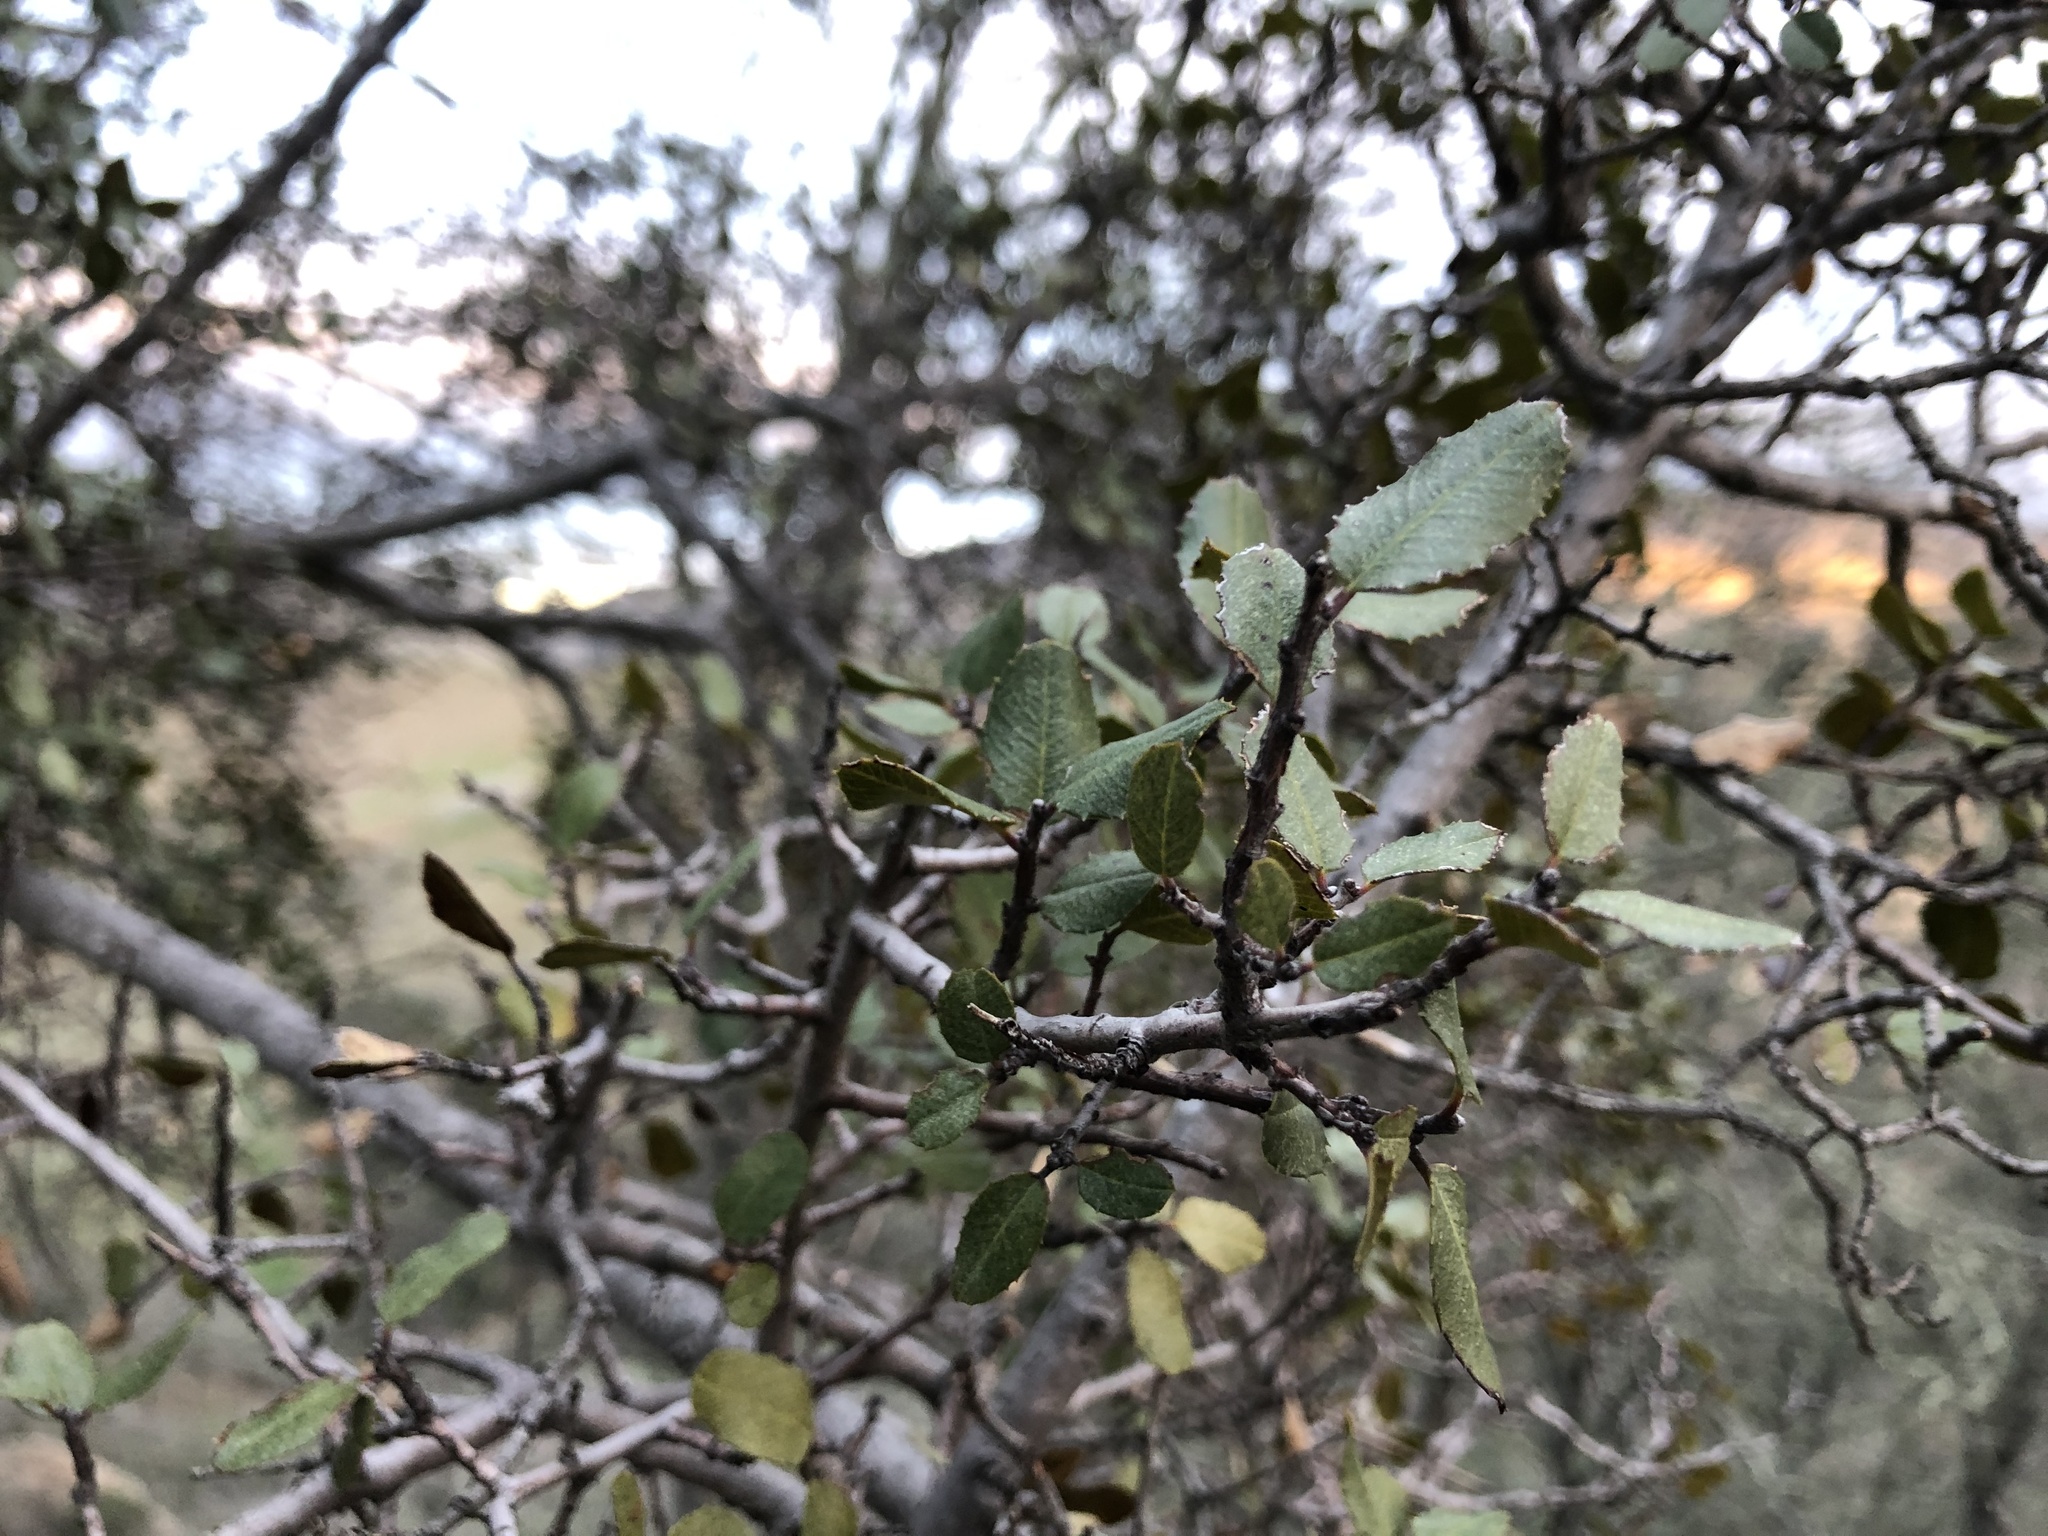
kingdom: Plantae
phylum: Tracheophyta
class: Magnoliopsida
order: Rosales
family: Rhamnaceae
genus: Endotropis
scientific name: Endotropis crocea
